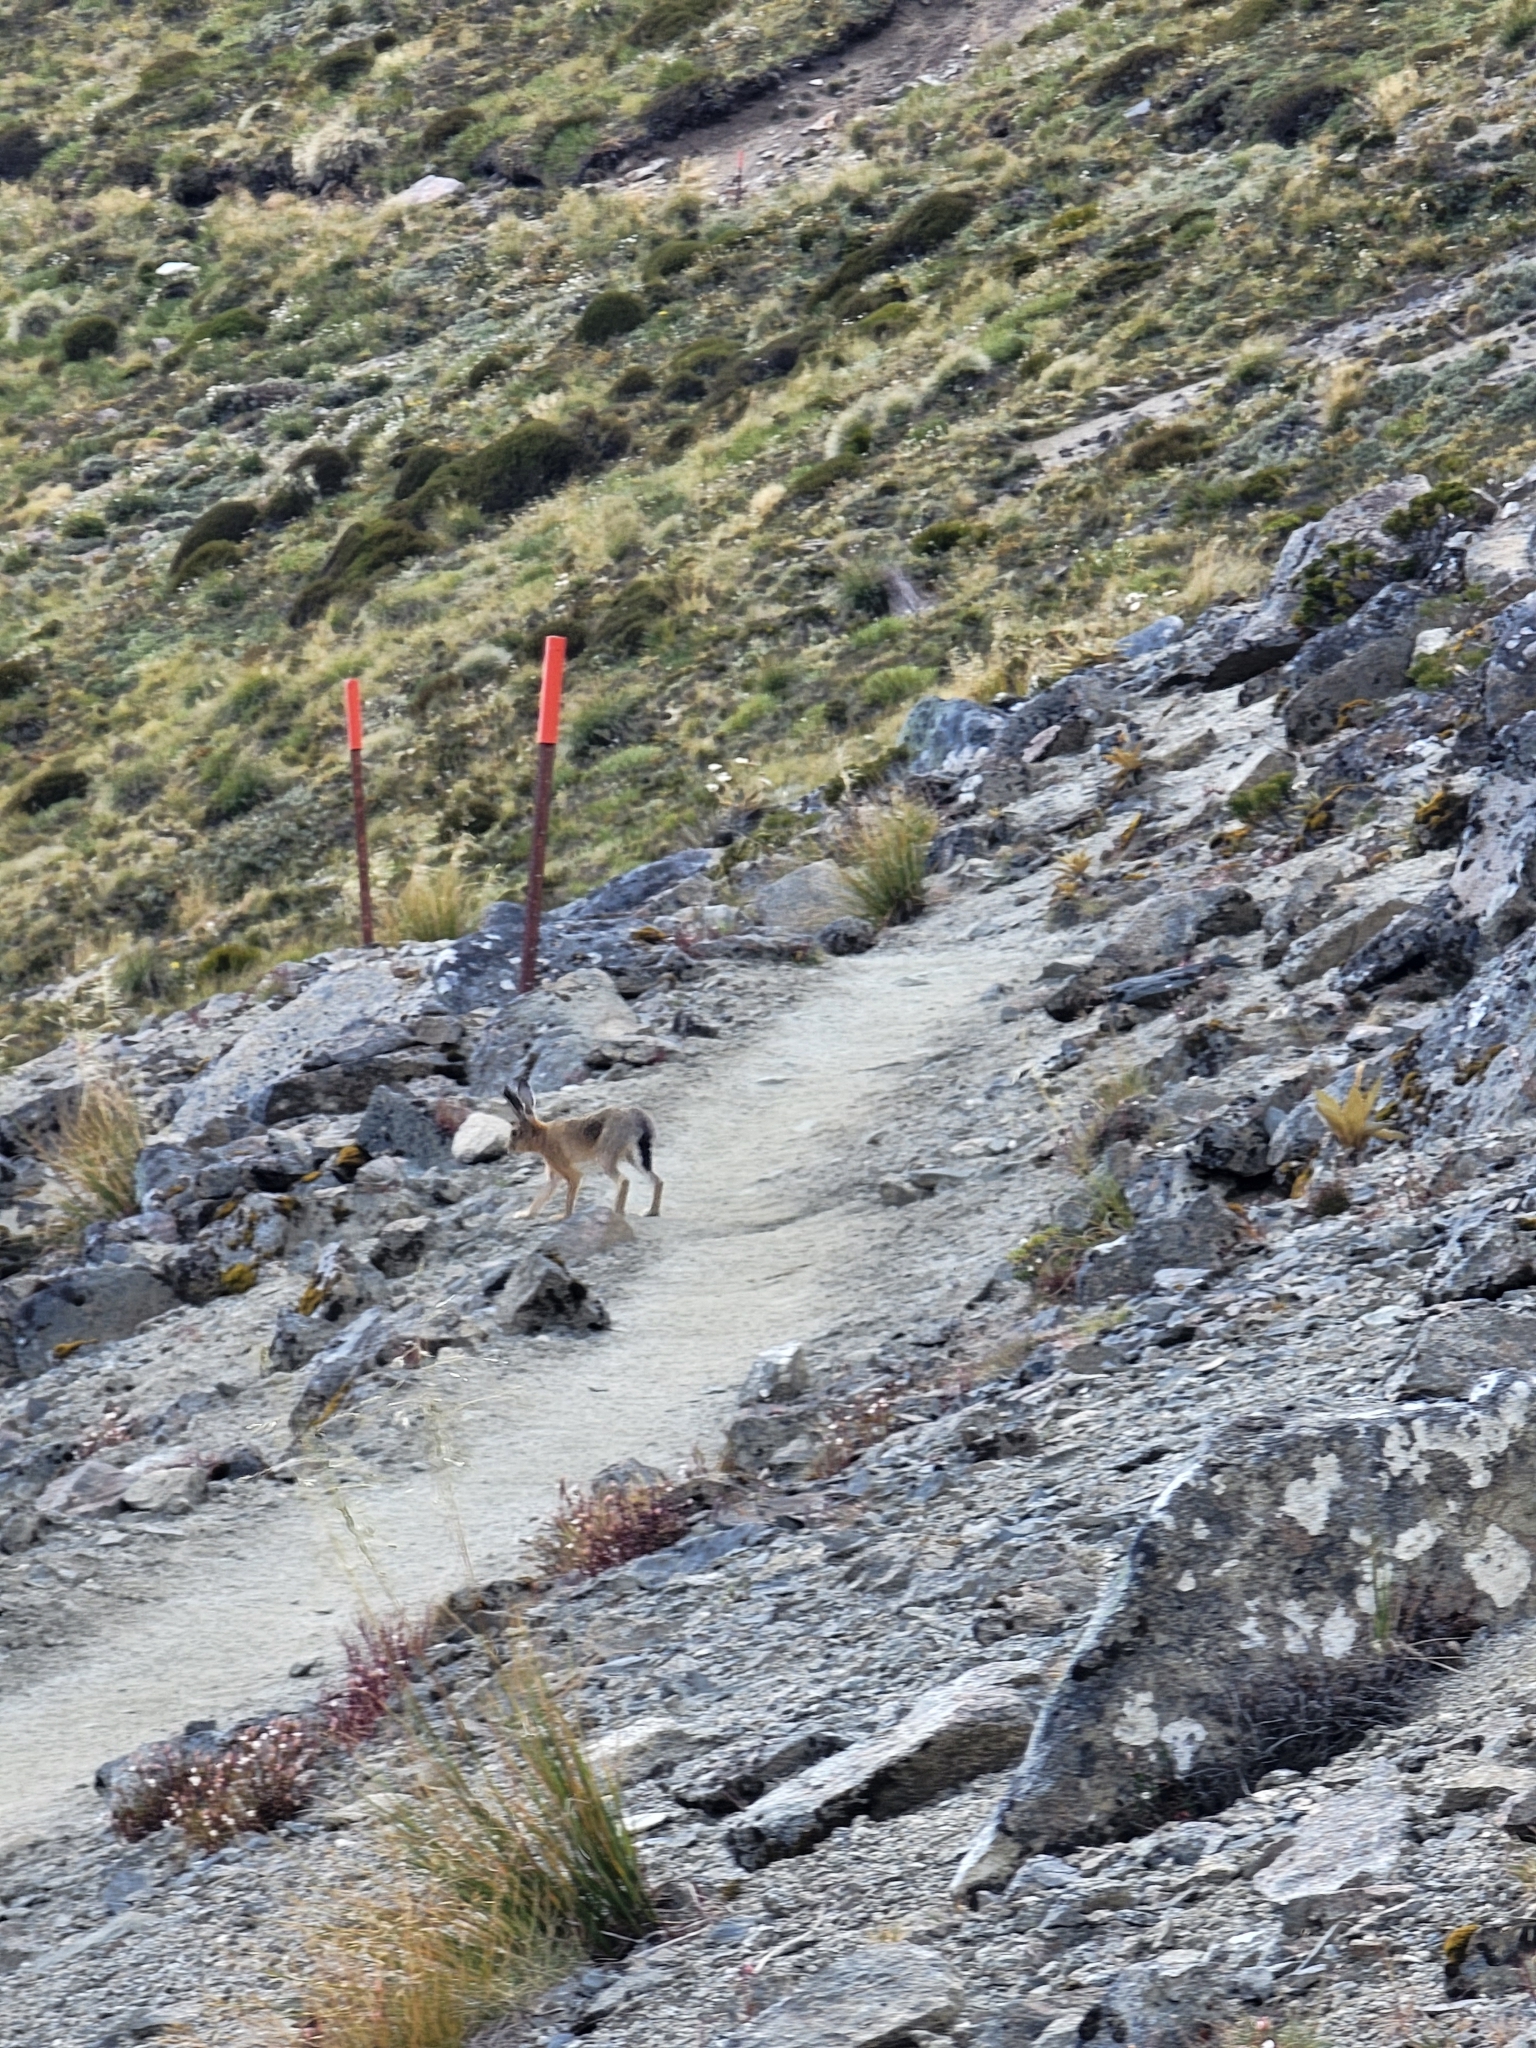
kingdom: Animalia
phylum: Chordata
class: Mammalia
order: Lagomorpha
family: Leporidae
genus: Lepus
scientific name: Lepus europaeus
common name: European hare
